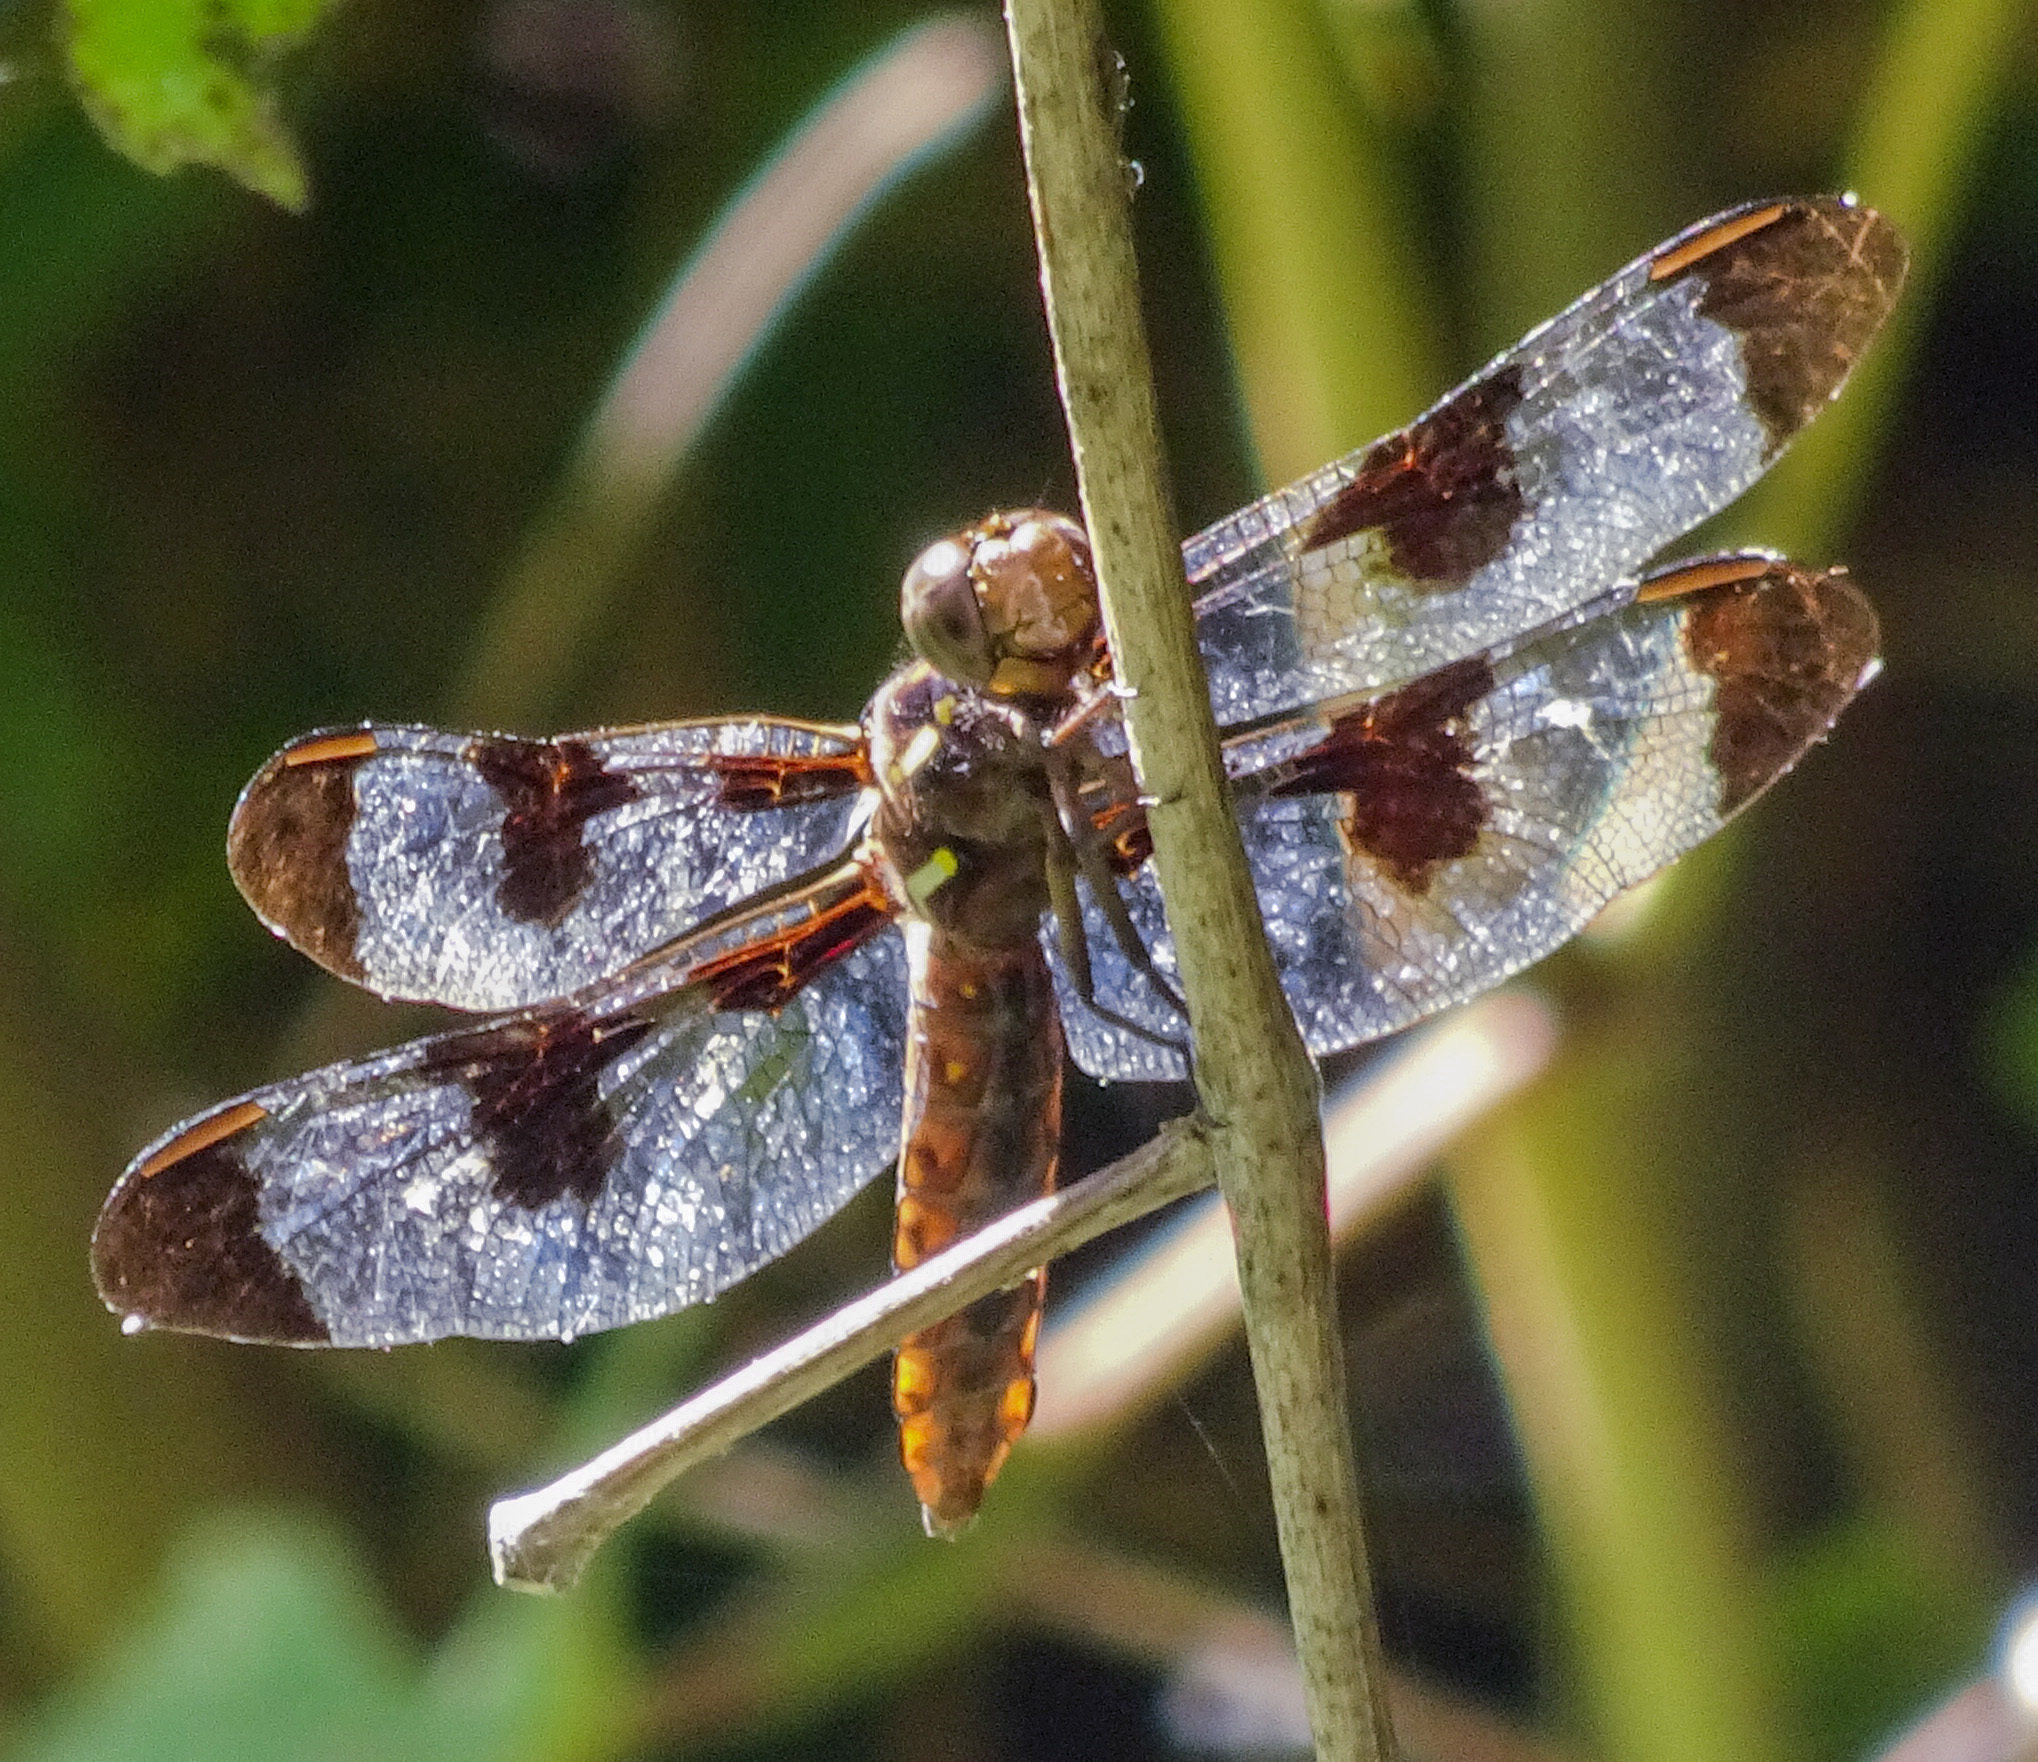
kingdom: Animalia
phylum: Arthropoda
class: Insecta
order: Odonata
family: Libellulidae
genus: Plathemis
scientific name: Plathemis lydia
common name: Common whitetail
